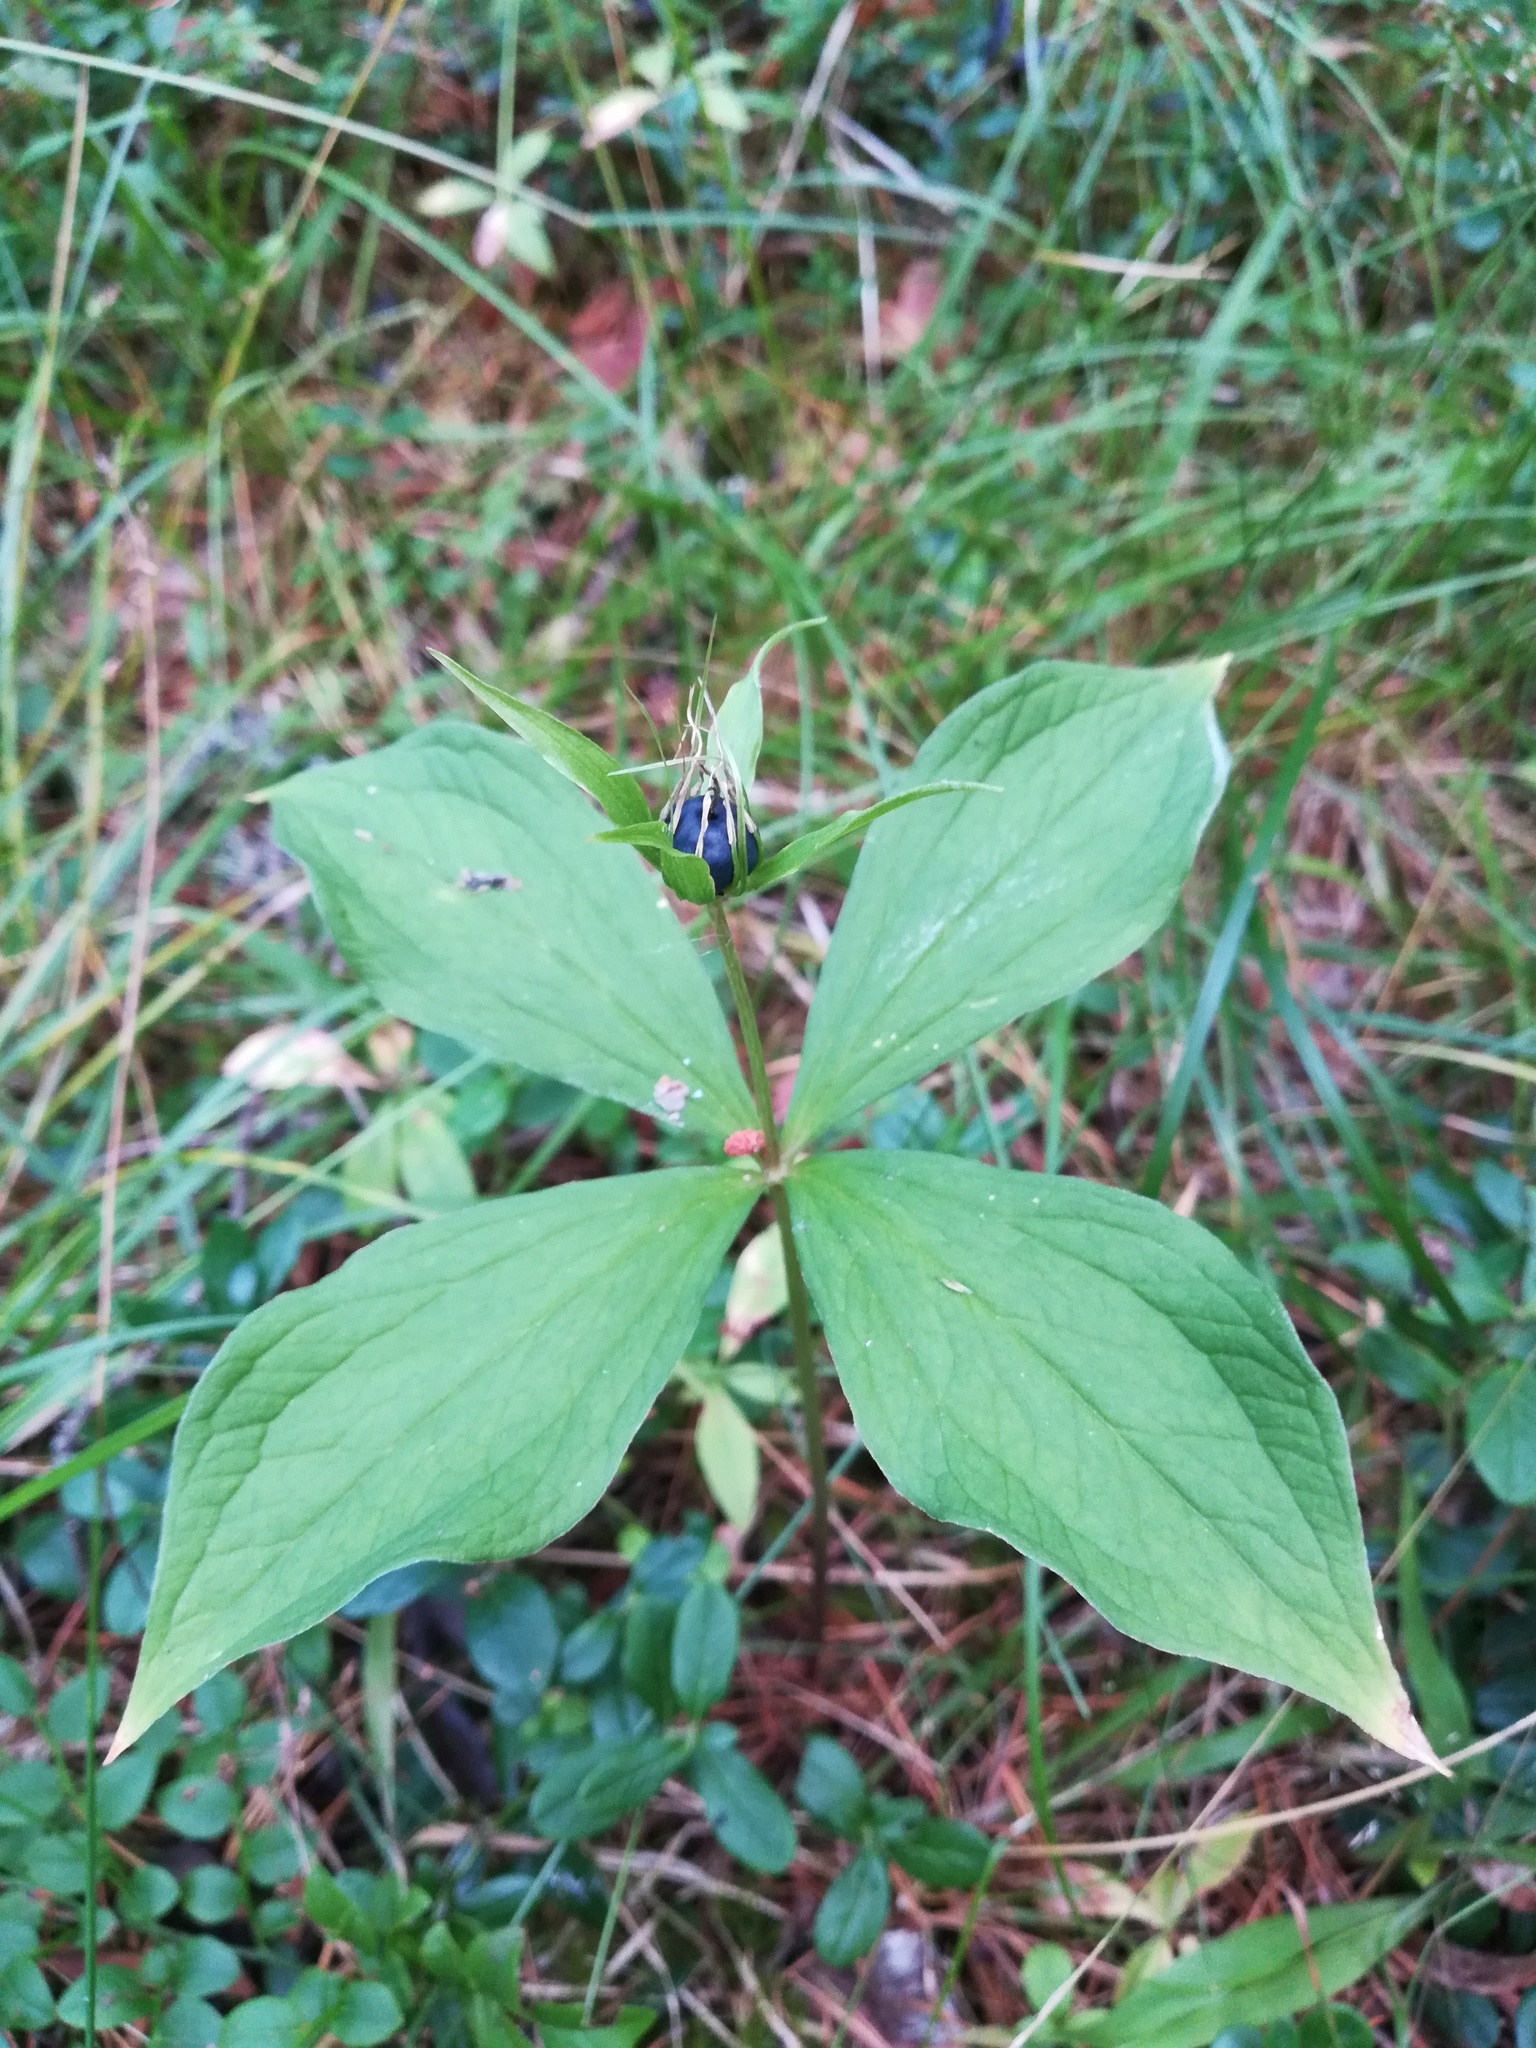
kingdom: Plantae
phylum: Tracheophyta
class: Liliopsida
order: Liliales
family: Melanthiaceae
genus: Paris
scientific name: Paris quadrifolia
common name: Herb-paris
